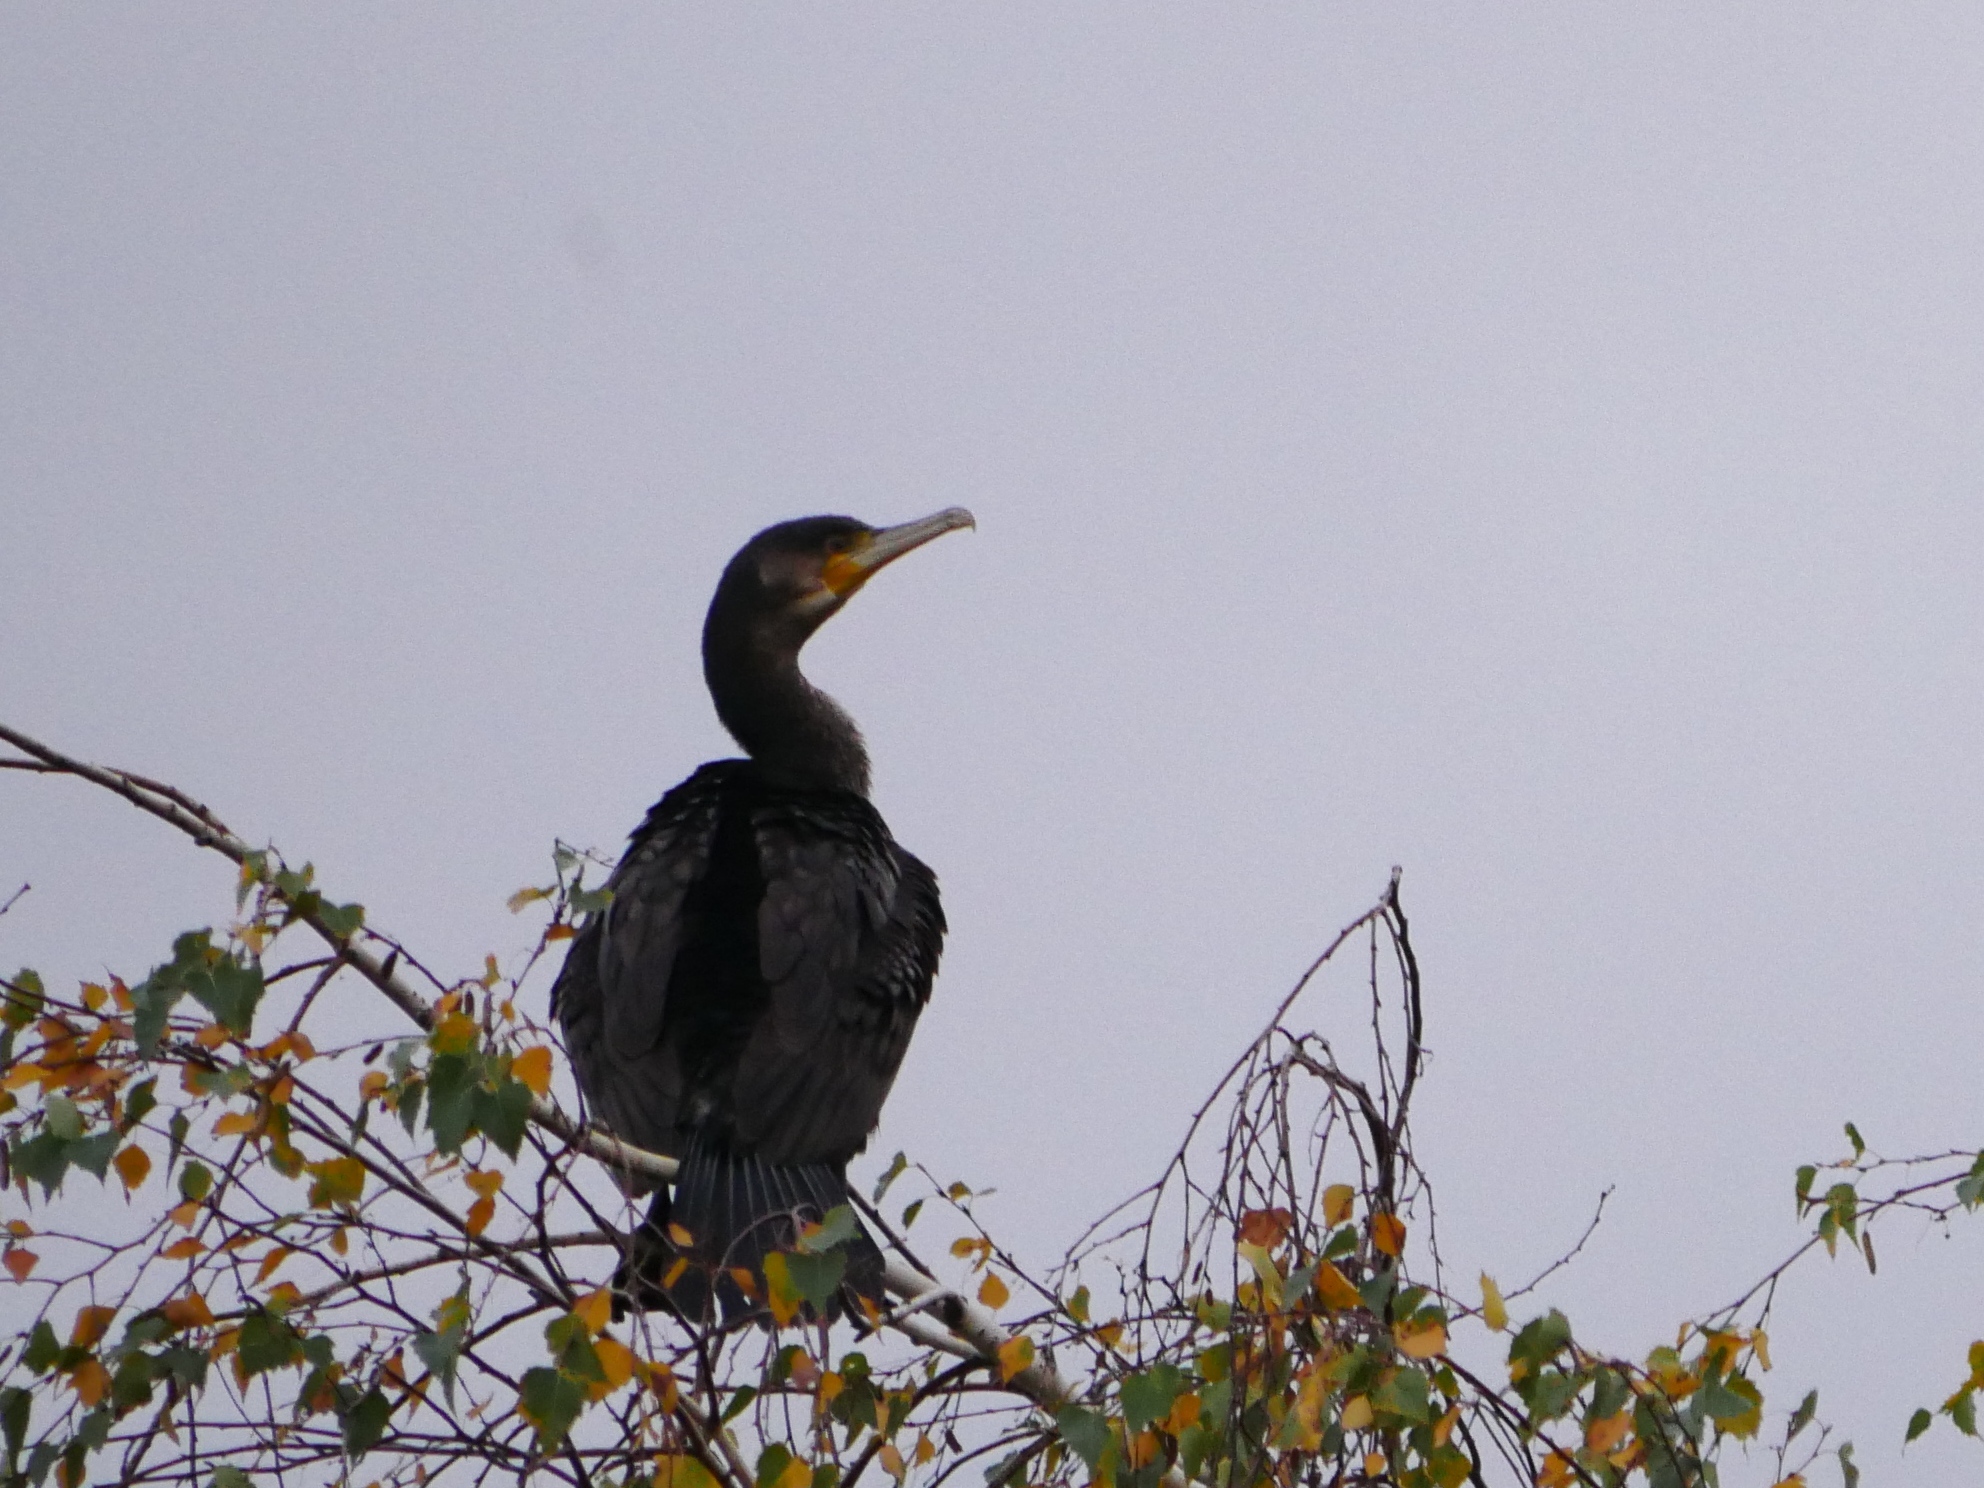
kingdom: Animalia
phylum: Chordata
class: Aves
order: Suliformes
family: Phalacrocoracidae
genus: Phalacrocorax
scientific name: Phalacrocorax carbo
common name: Great cormorant
